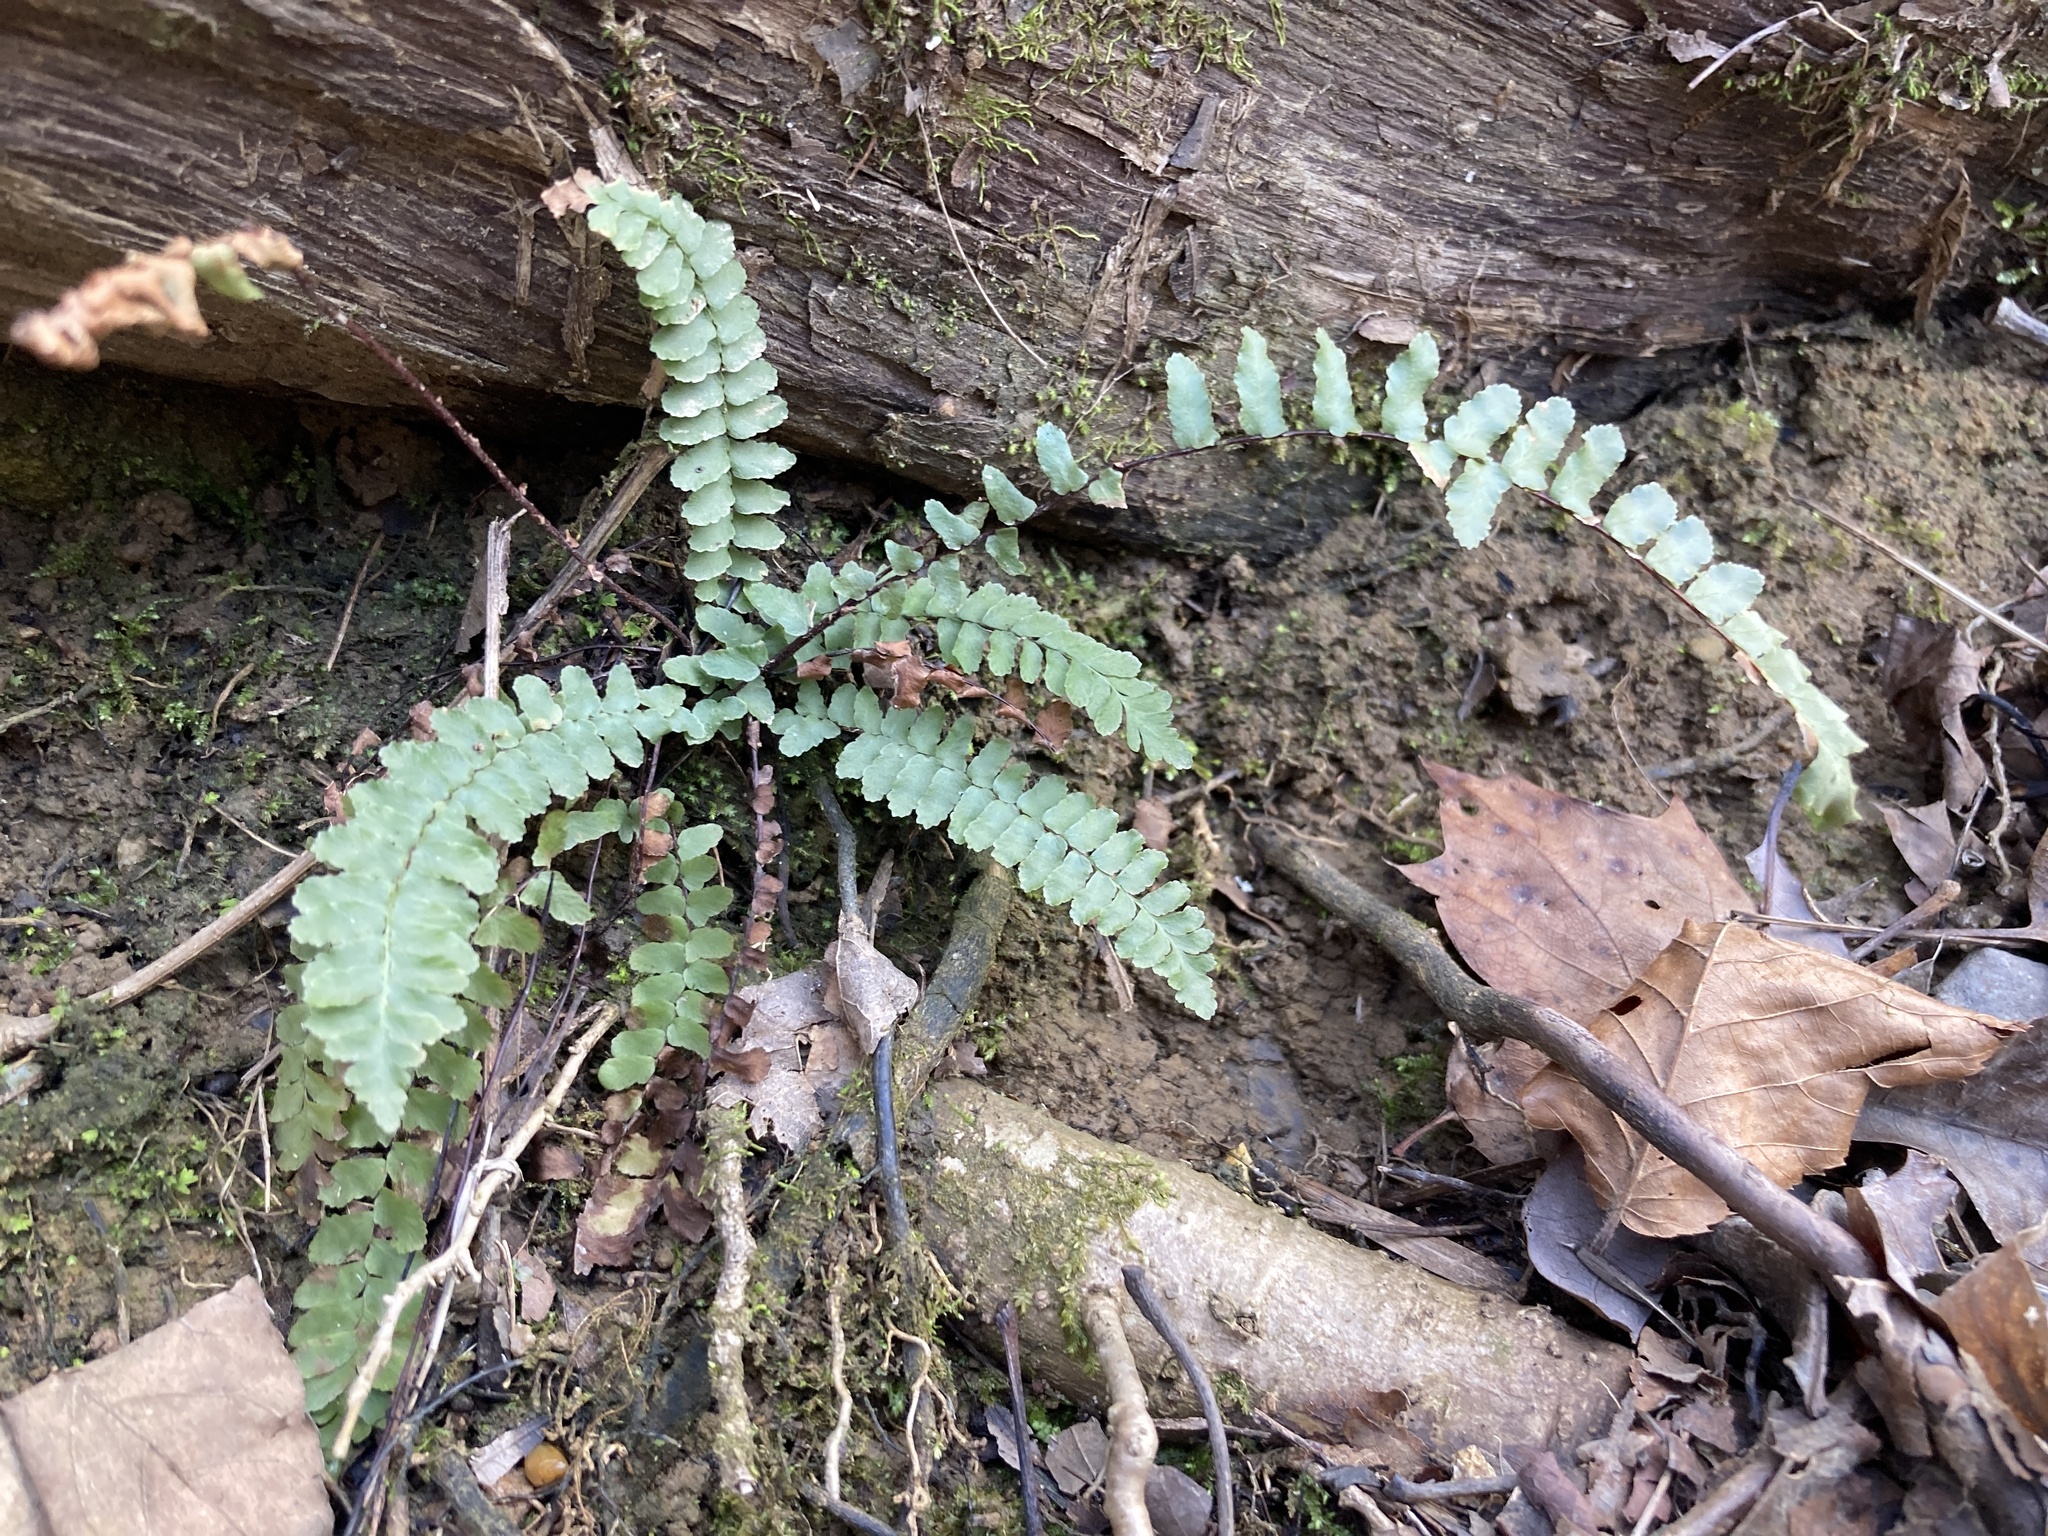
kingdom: Plantae
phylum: Tracheophyta
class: Polypodiopsida
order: Polypodiales
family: Aspleniaceae
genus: Asplenium
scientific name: Asplenium platyneuron
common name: Ebony spleenwort
